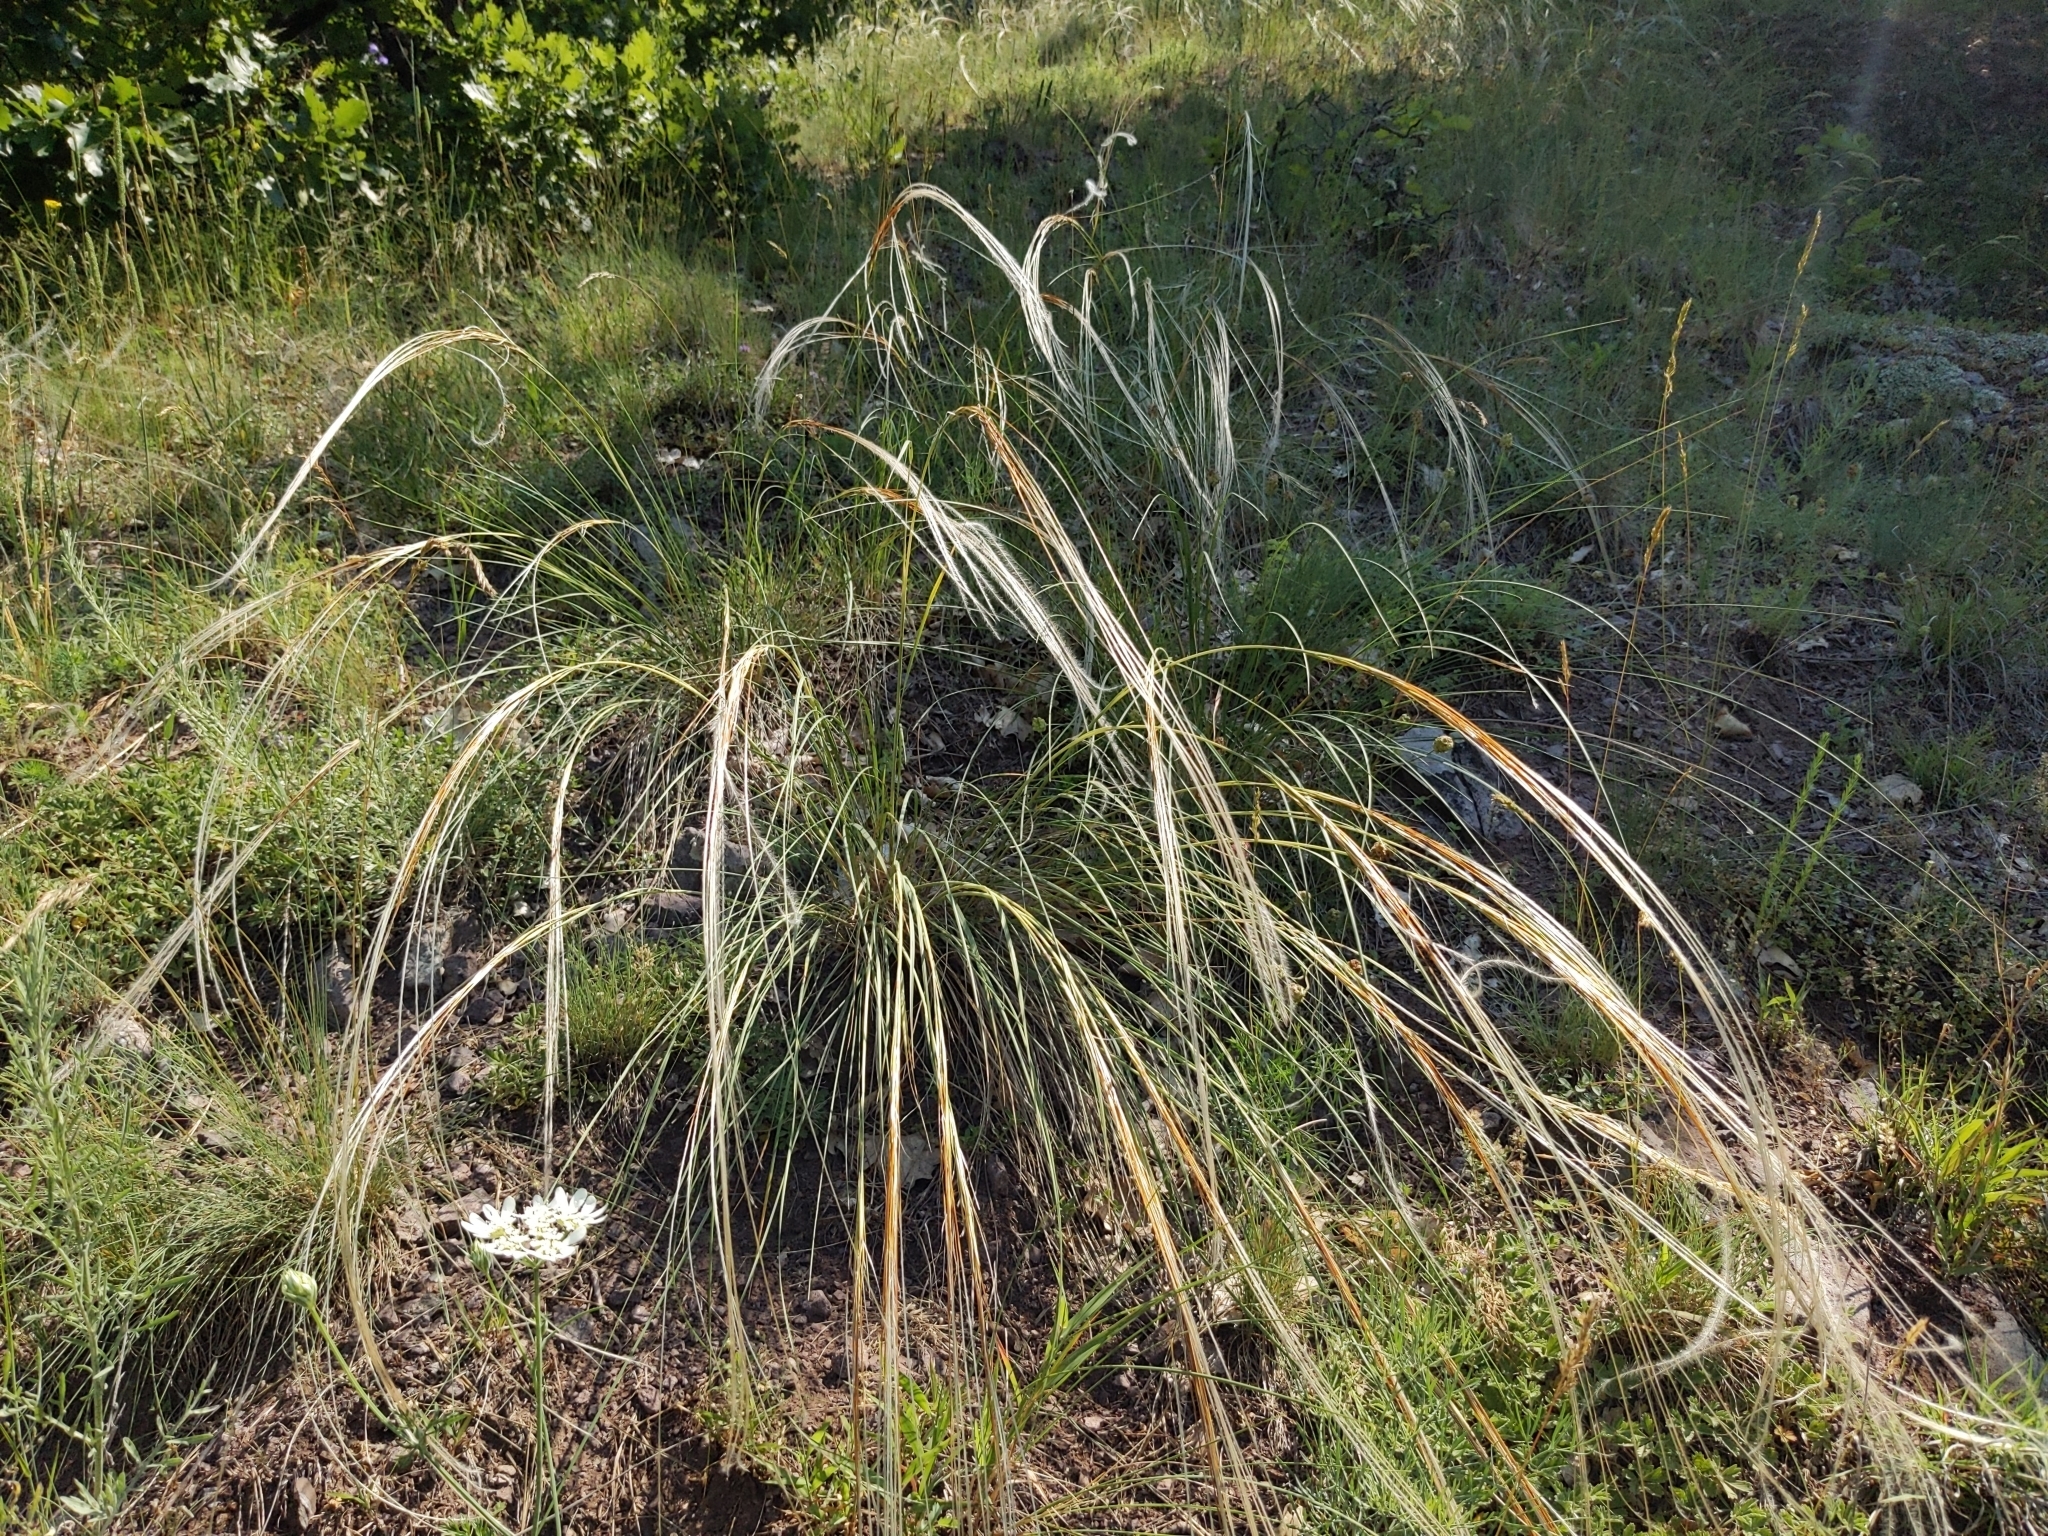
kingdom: Plantae
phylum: Tracheophyta
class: Liliopsida
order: Poales
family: Poaceae
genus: Stipa
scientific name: Stipa
